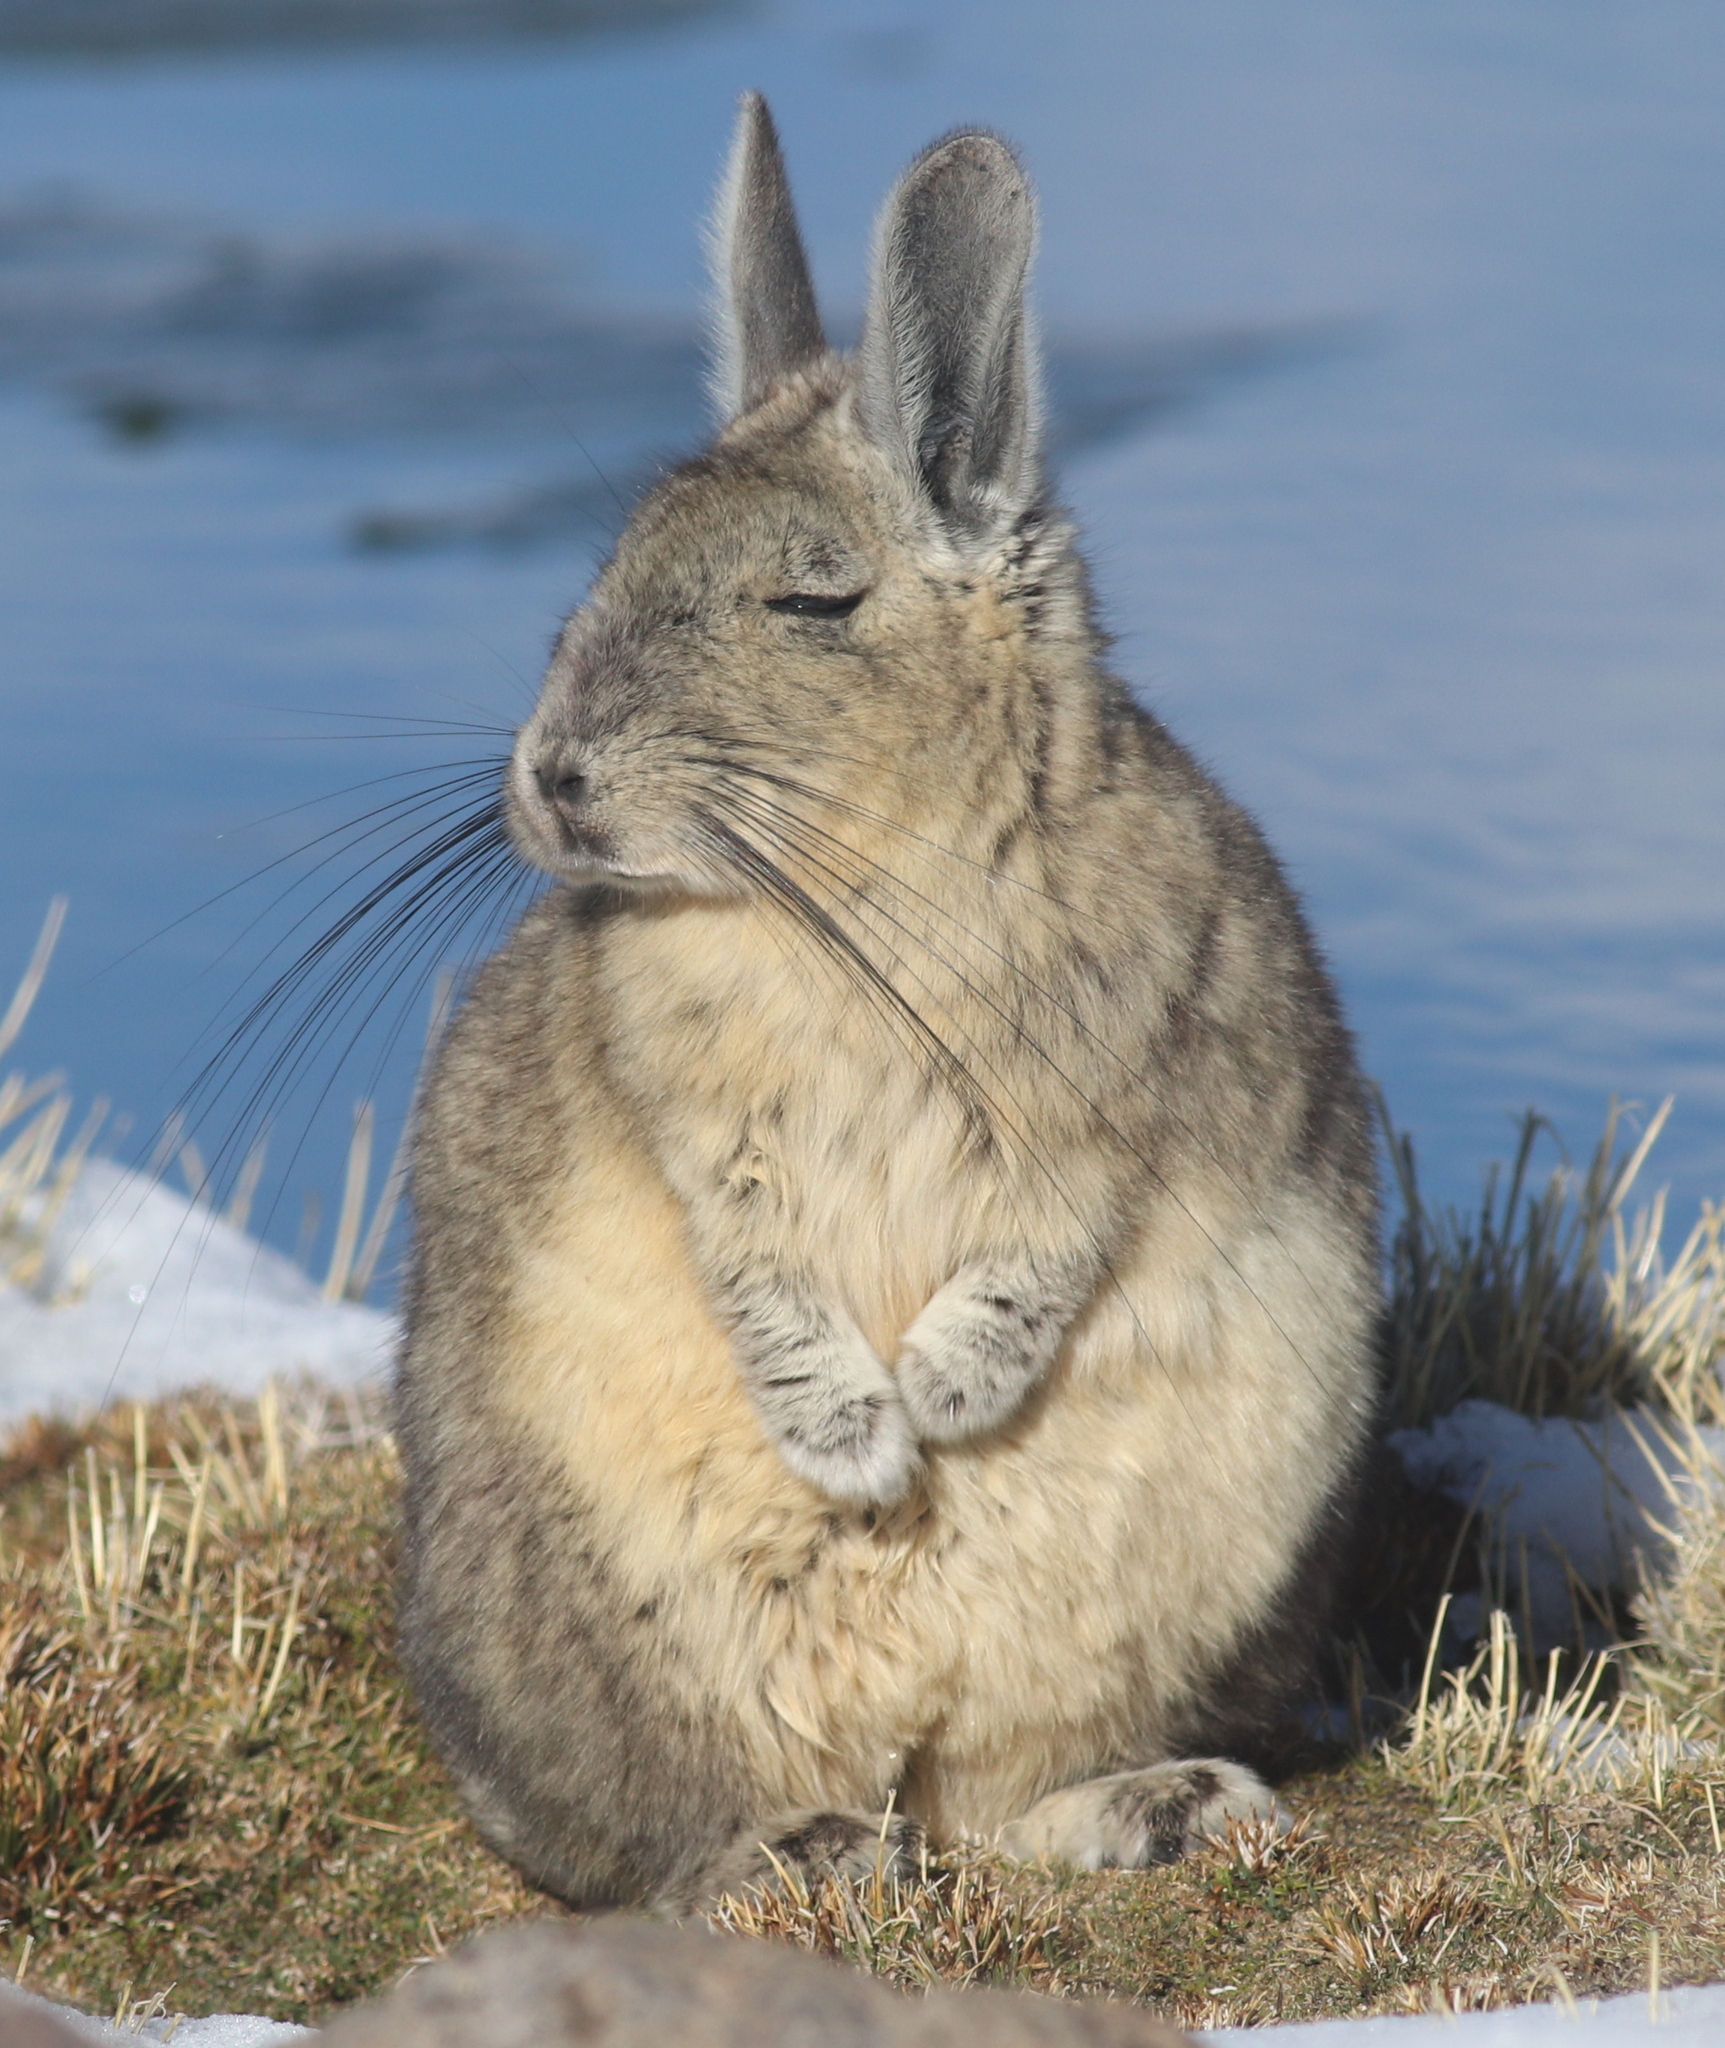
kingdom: Animalia
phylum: Chordata
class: Mammalia
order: Rodentia
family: Chinchillidae
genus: Lagidium
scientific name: Lagidium viscacia
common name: Southern viscacha
